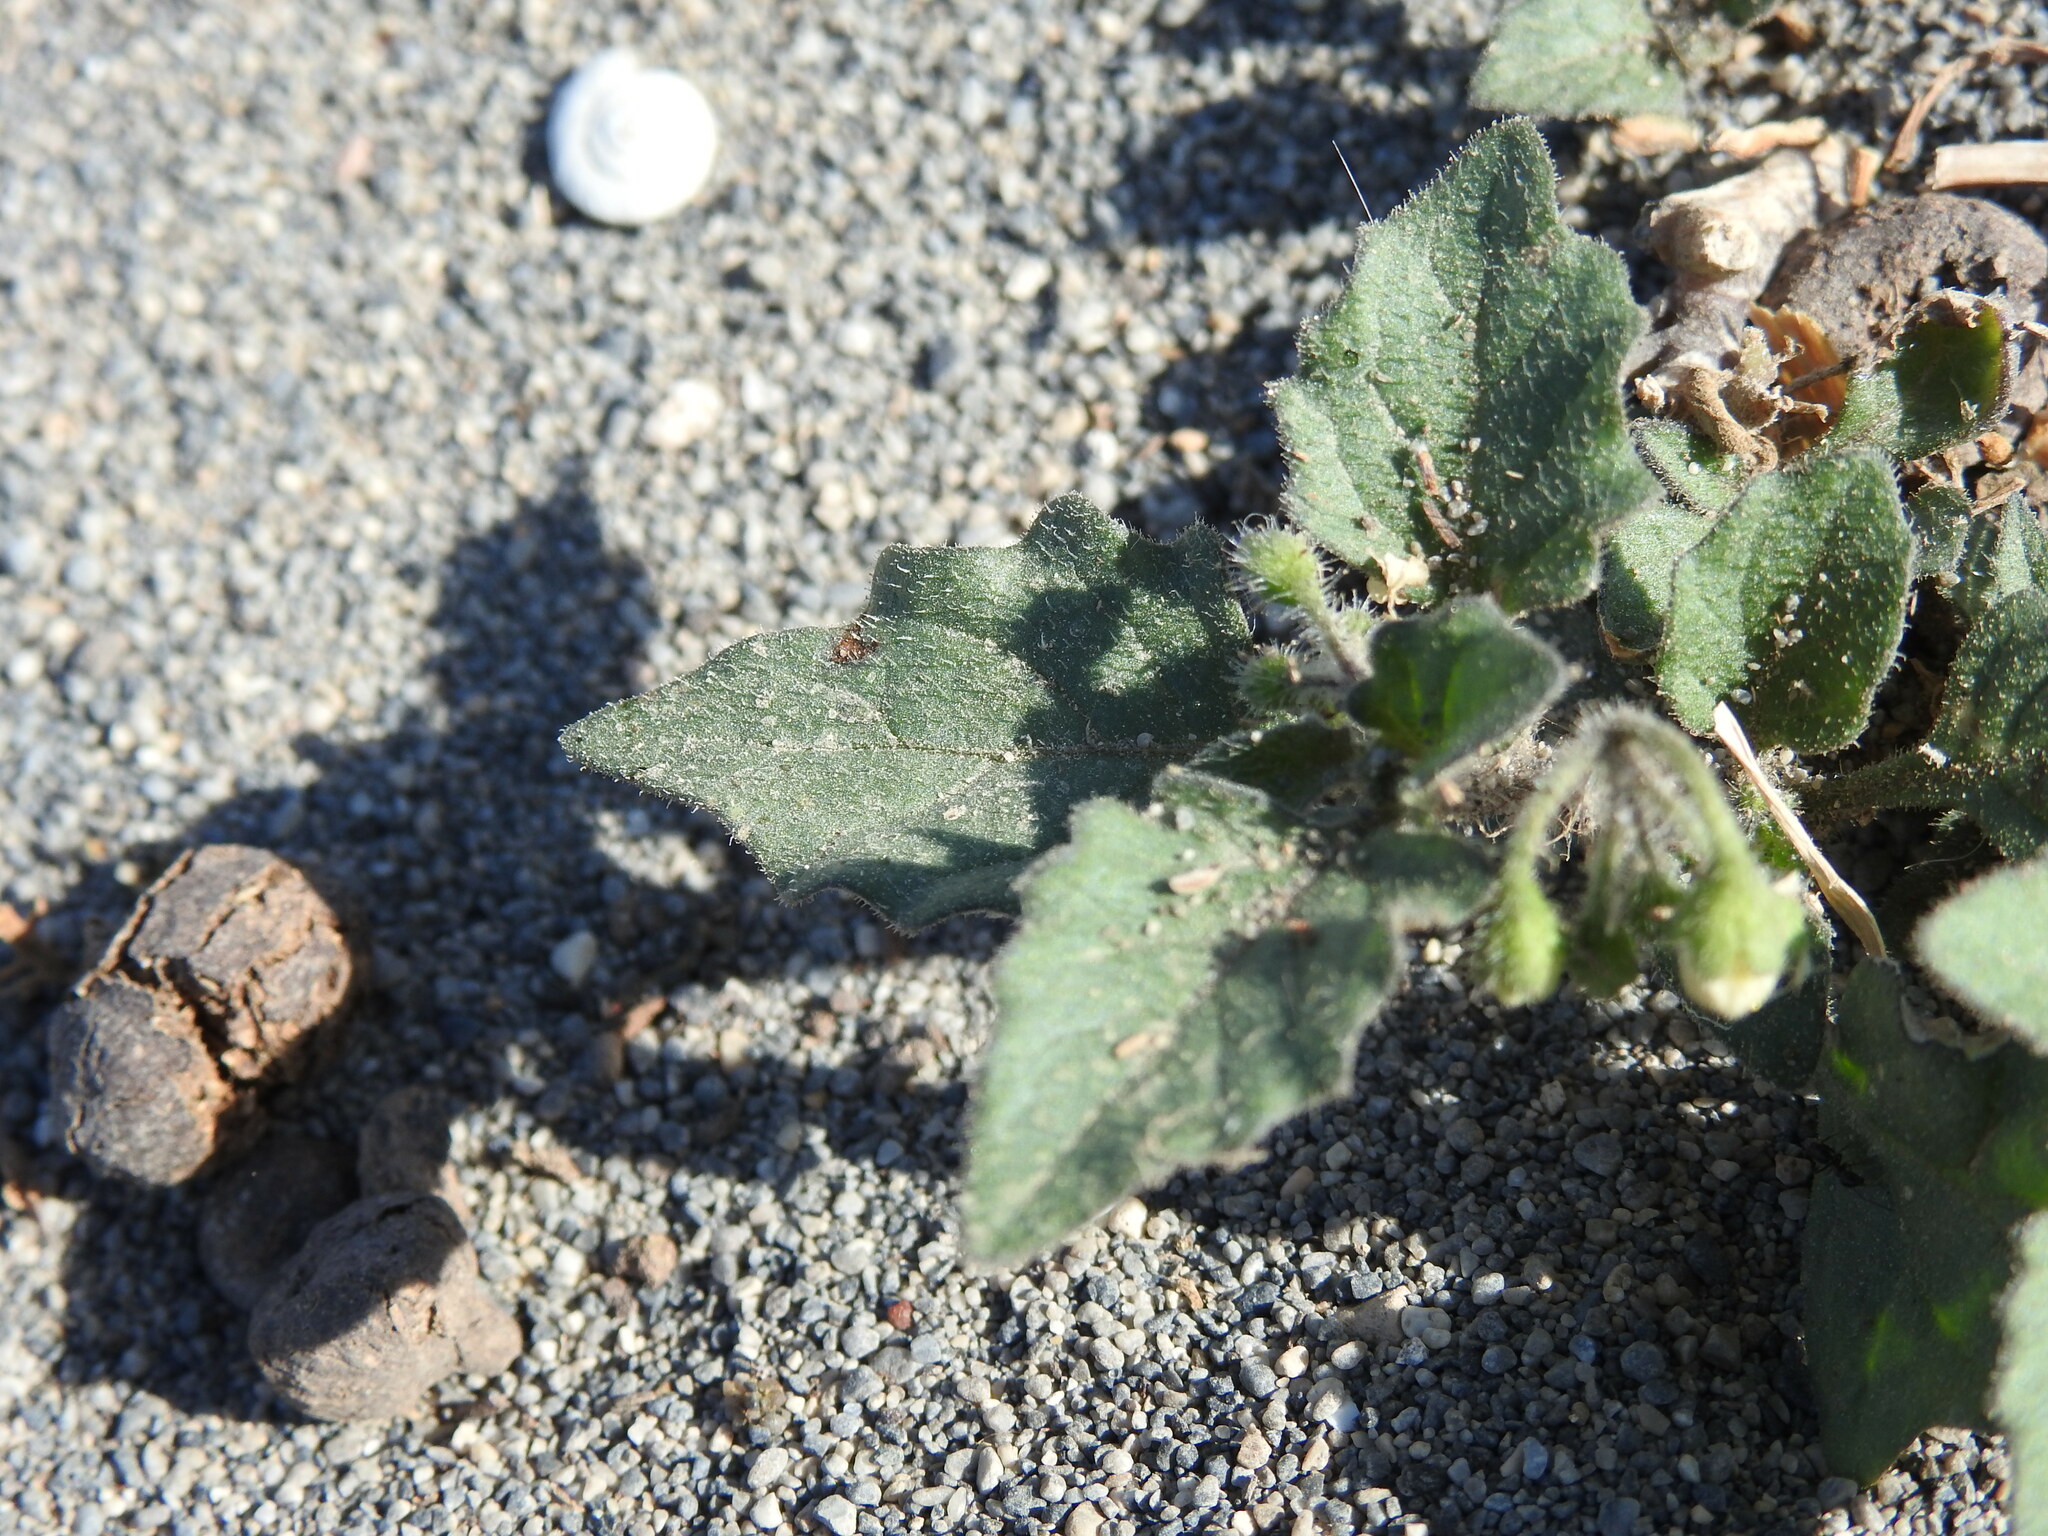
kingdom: Plantae
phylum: Tracheophyta
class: Magnoliopsida
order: Solanales
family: Solanaceae
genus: Solanum
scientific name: Solanum decipiens
